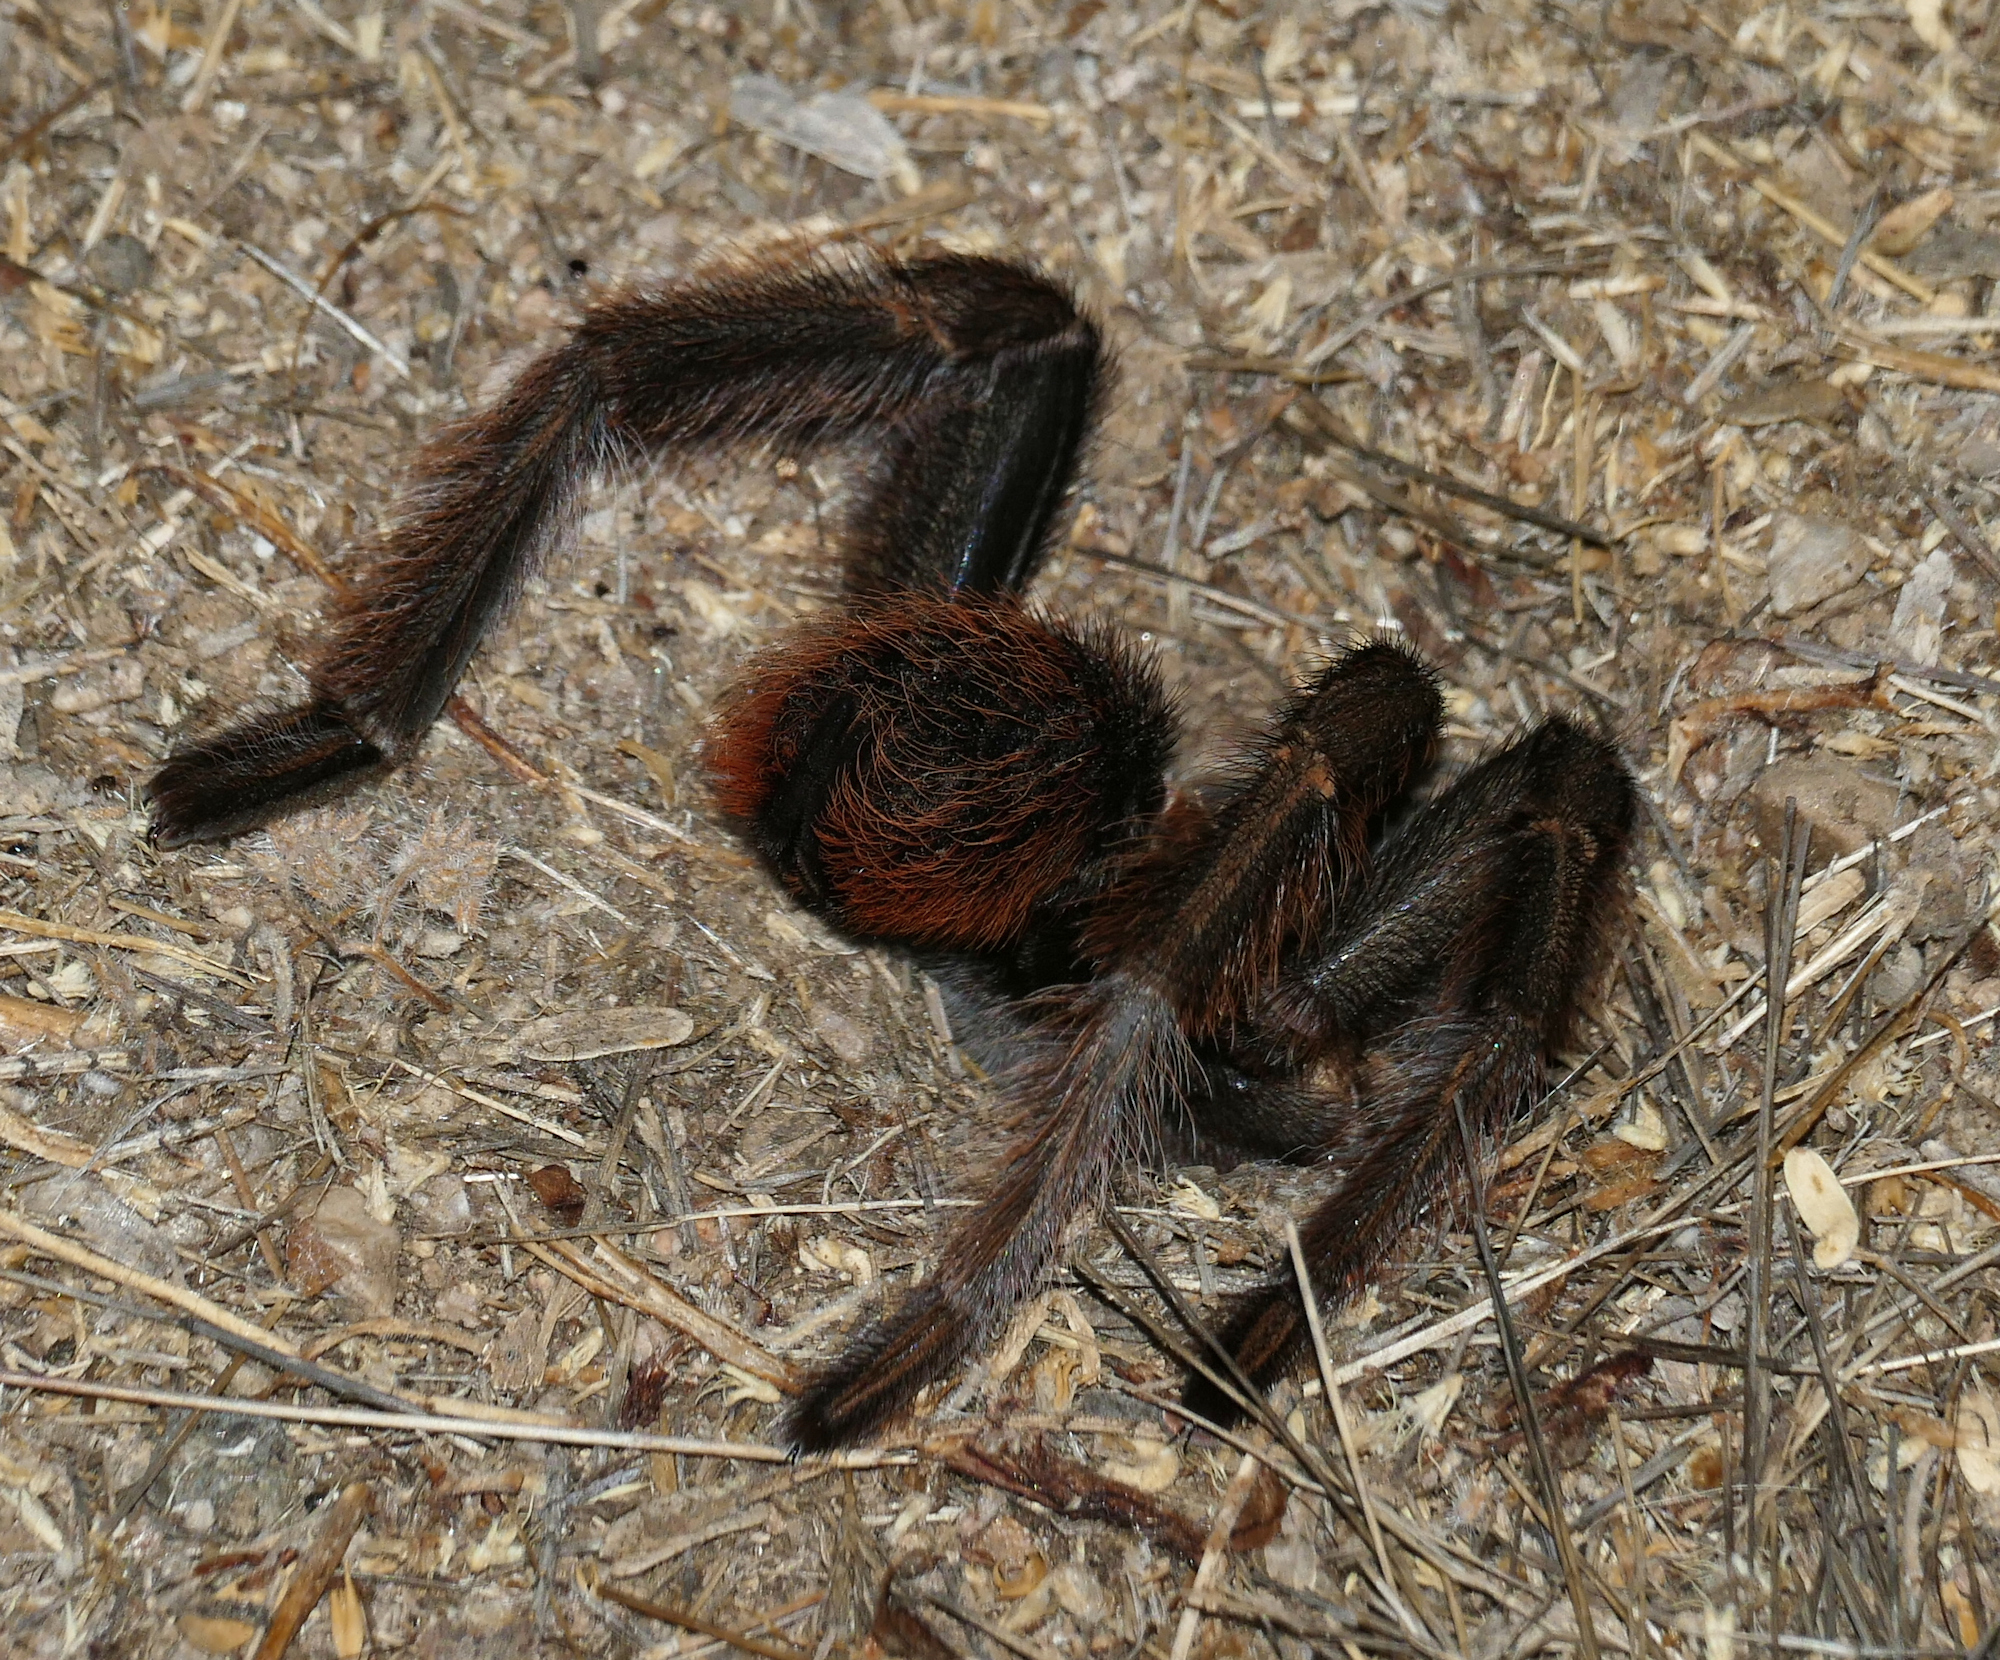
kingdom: Animalia
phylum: Arthropoda
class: Arachnida
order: Araneae
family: Theraphosidae
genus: Aphonopelma
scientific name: Aphonopelma chalcodes
